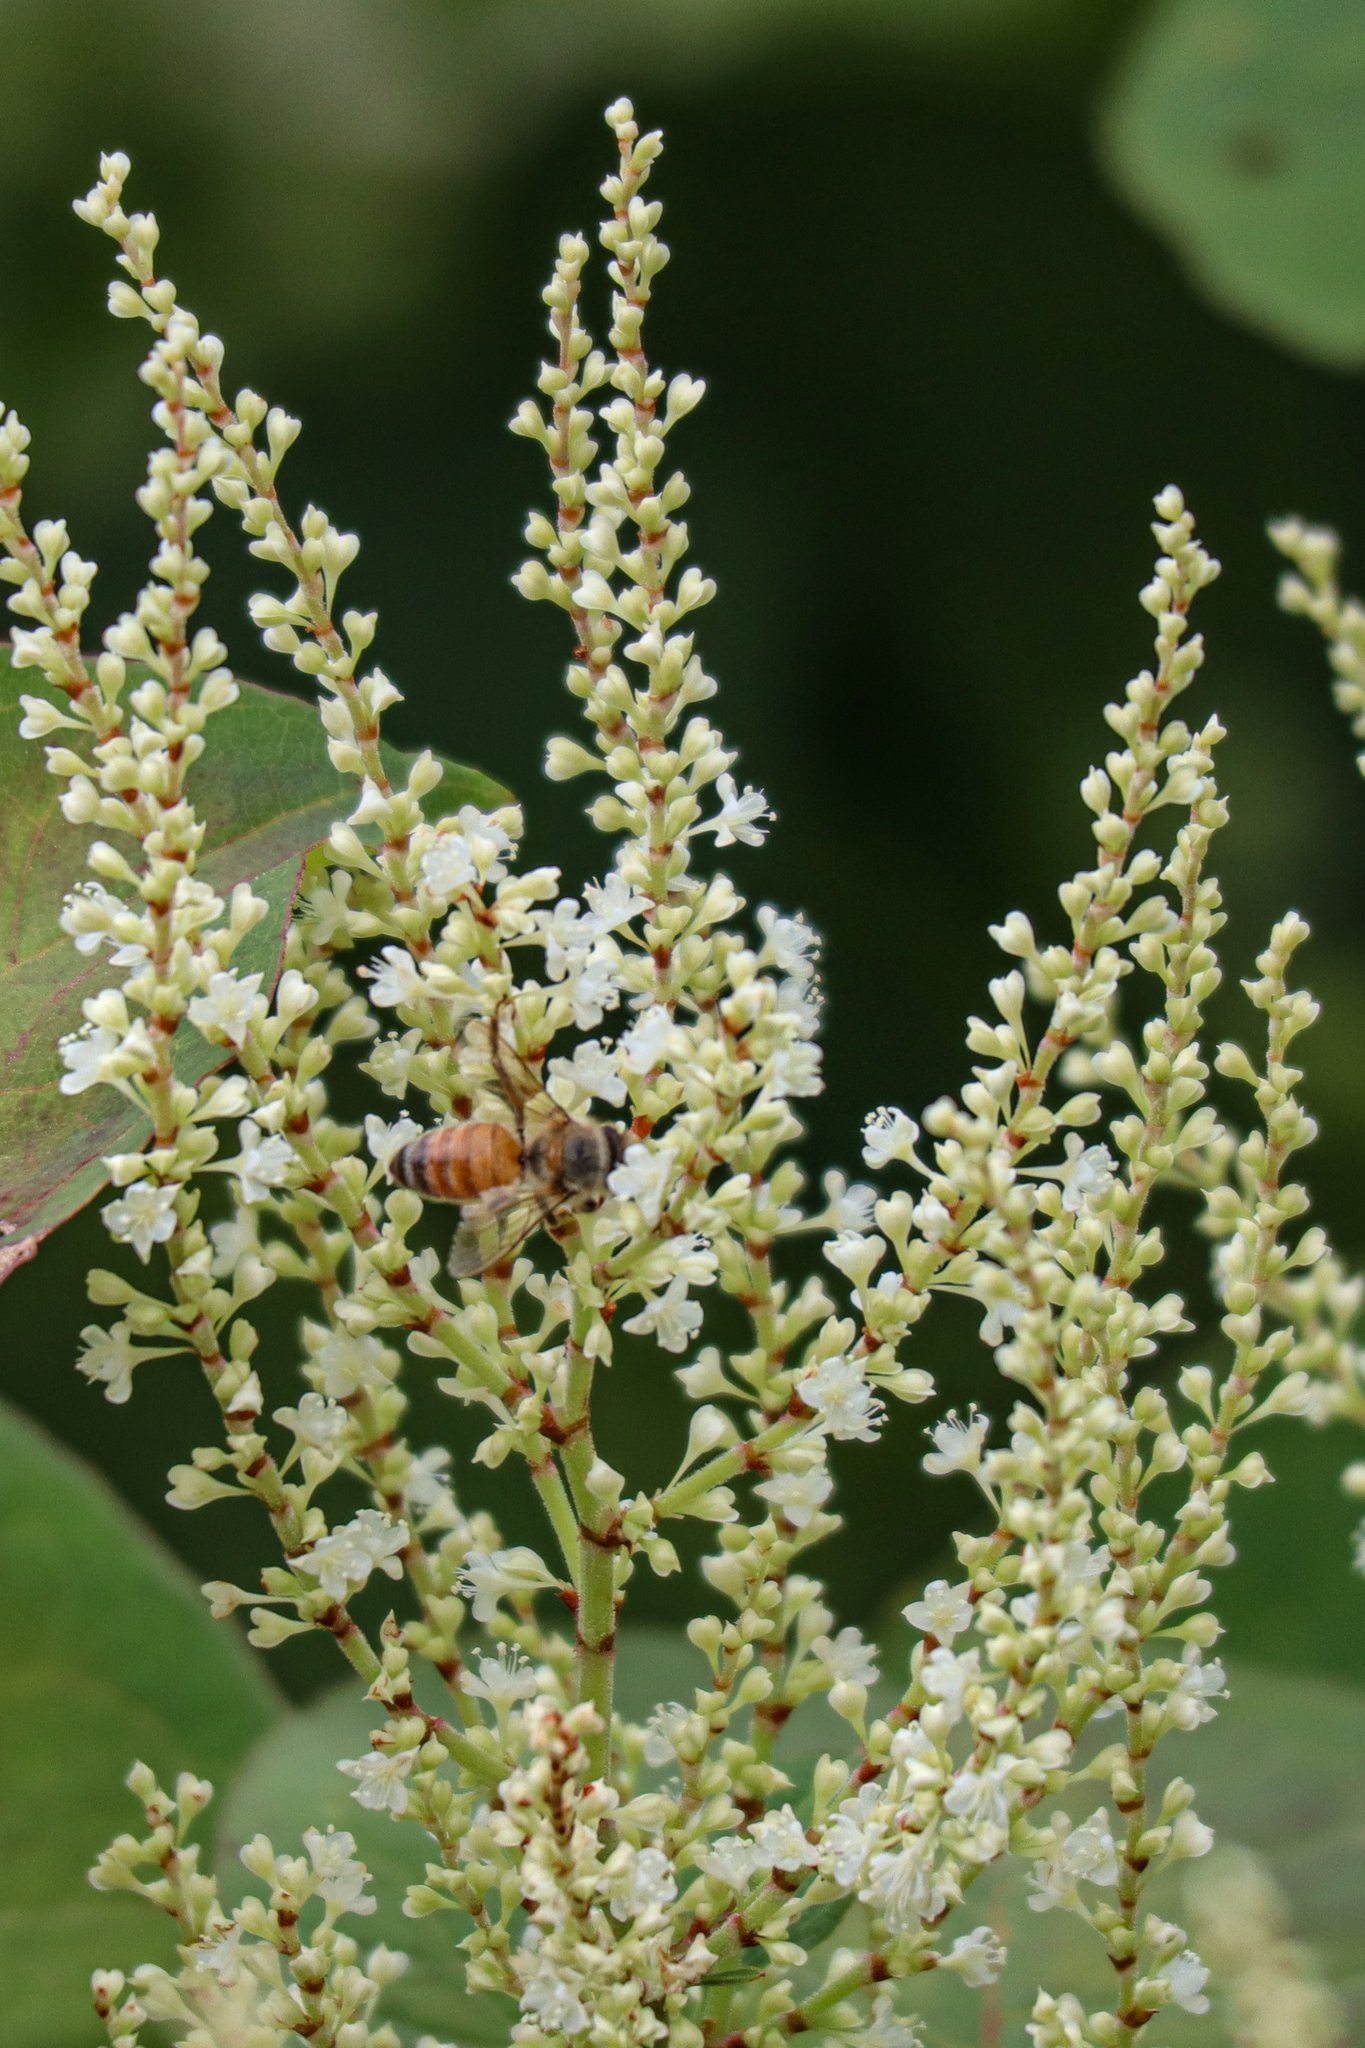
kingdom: Plantae
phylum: Tracheophyta
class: Magnoliopsida
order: Caryophyllales
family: Polygonaceae
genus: Reynoutria
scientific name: Reynoutria japonica
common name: Japanese knotweed
